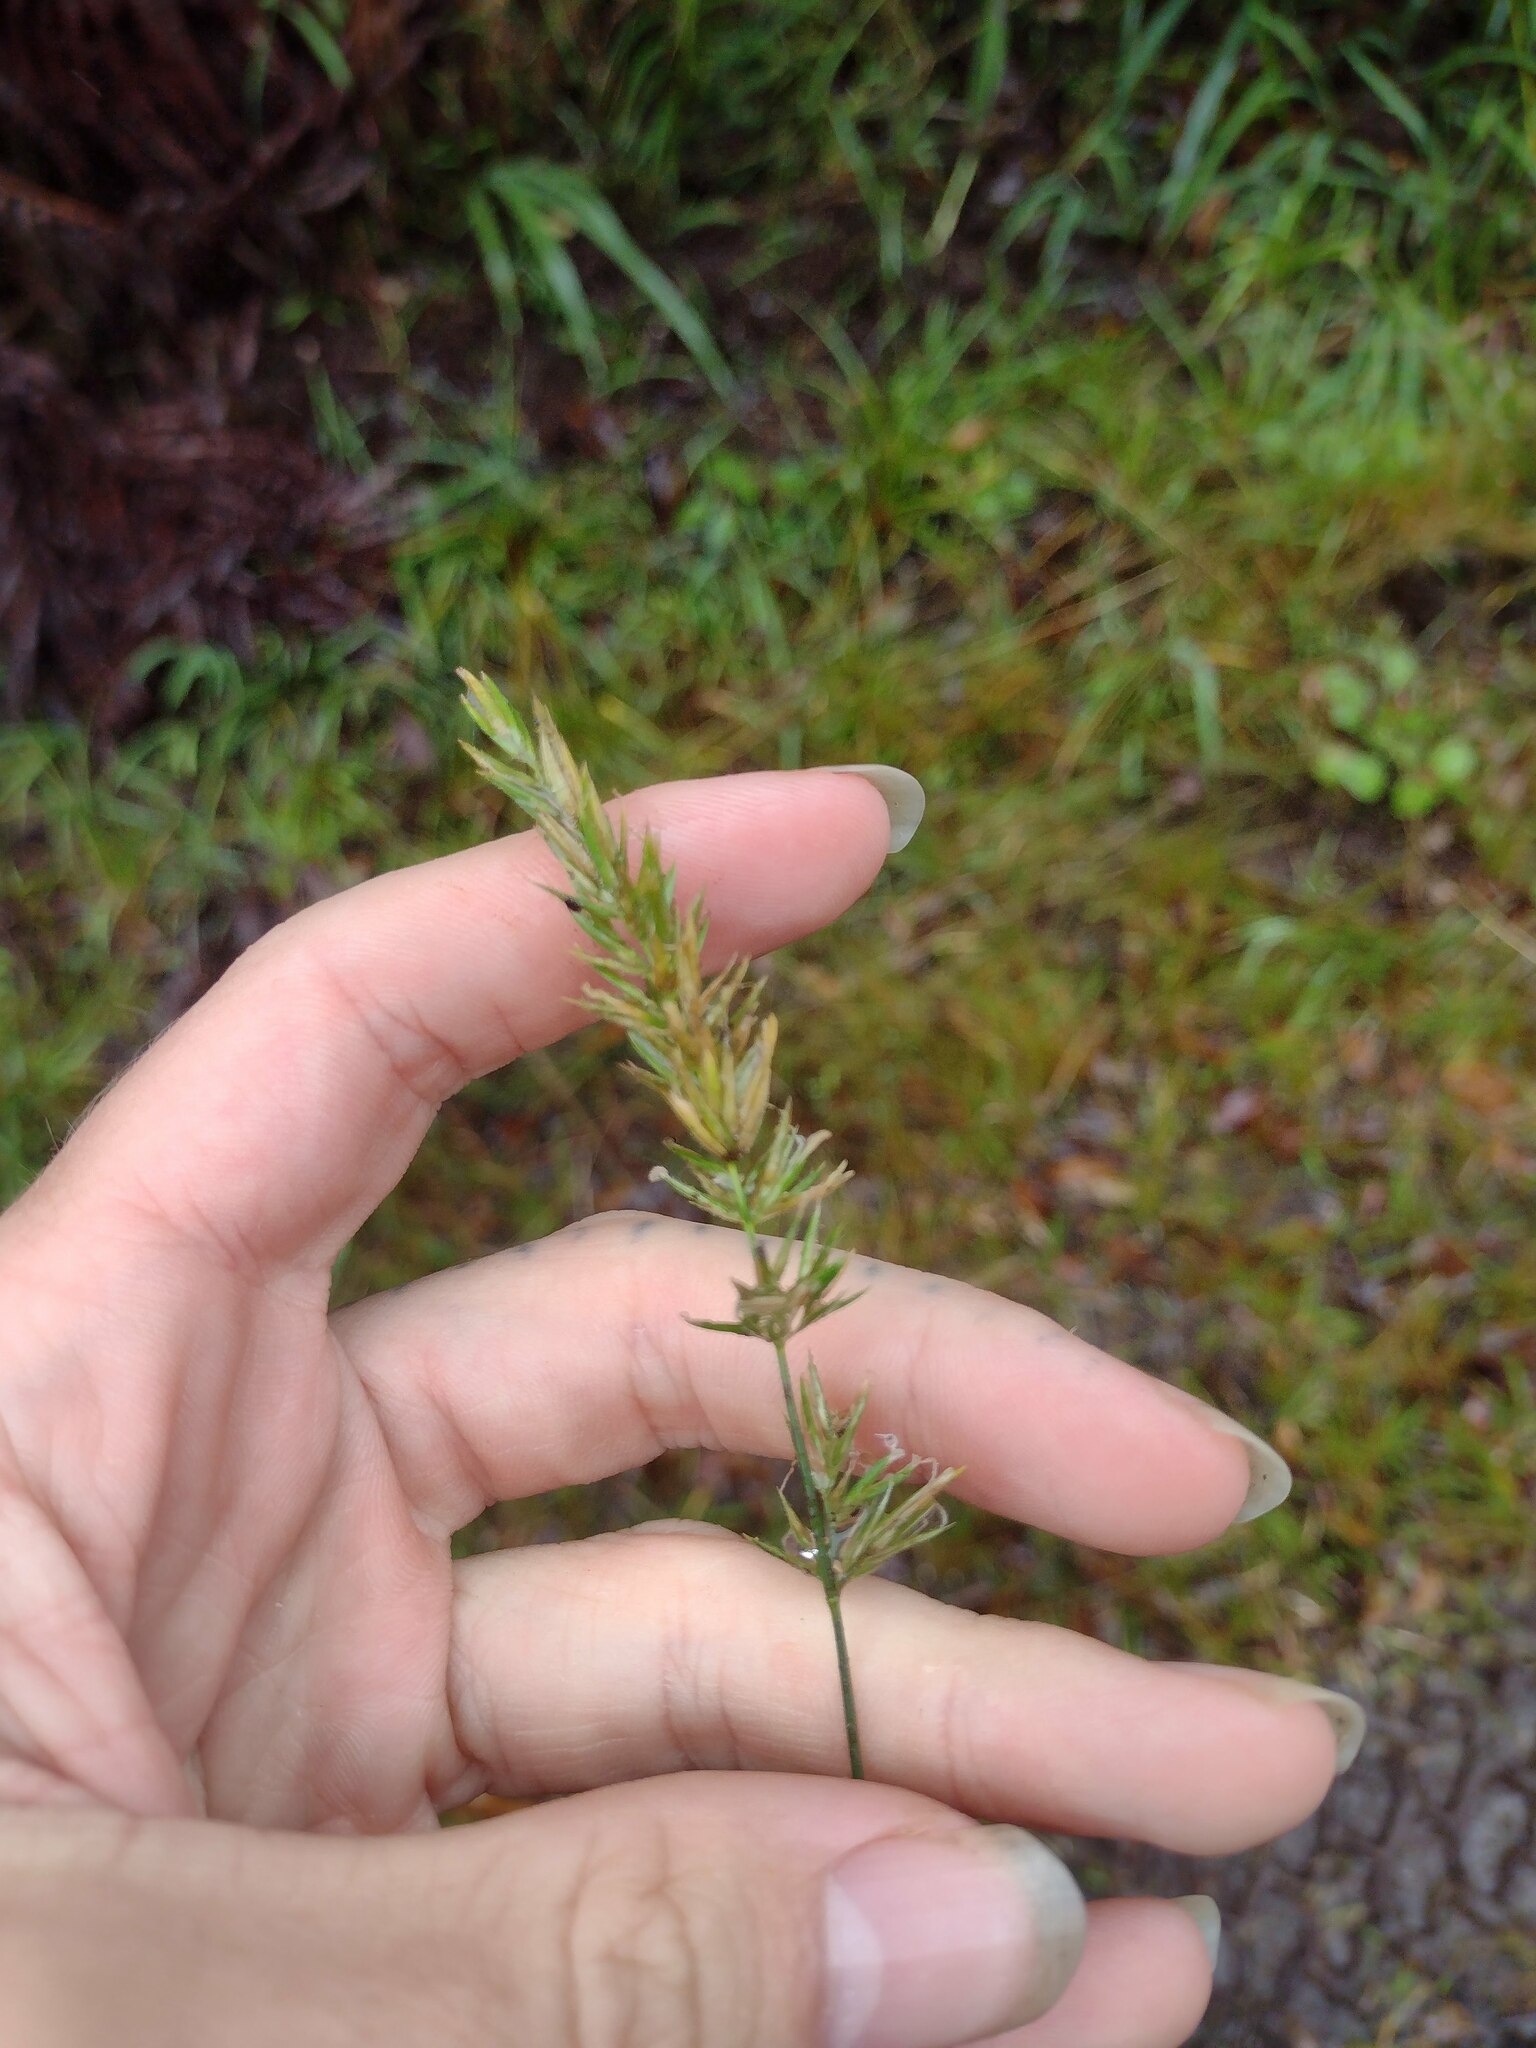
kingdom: Plantae
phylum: Tracheophyta
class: Liliopsida
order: Poales
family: Poaceae
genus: Anthoxanthum
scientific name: Anthoxanthum odoratum
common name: Sweet vernalgrass
